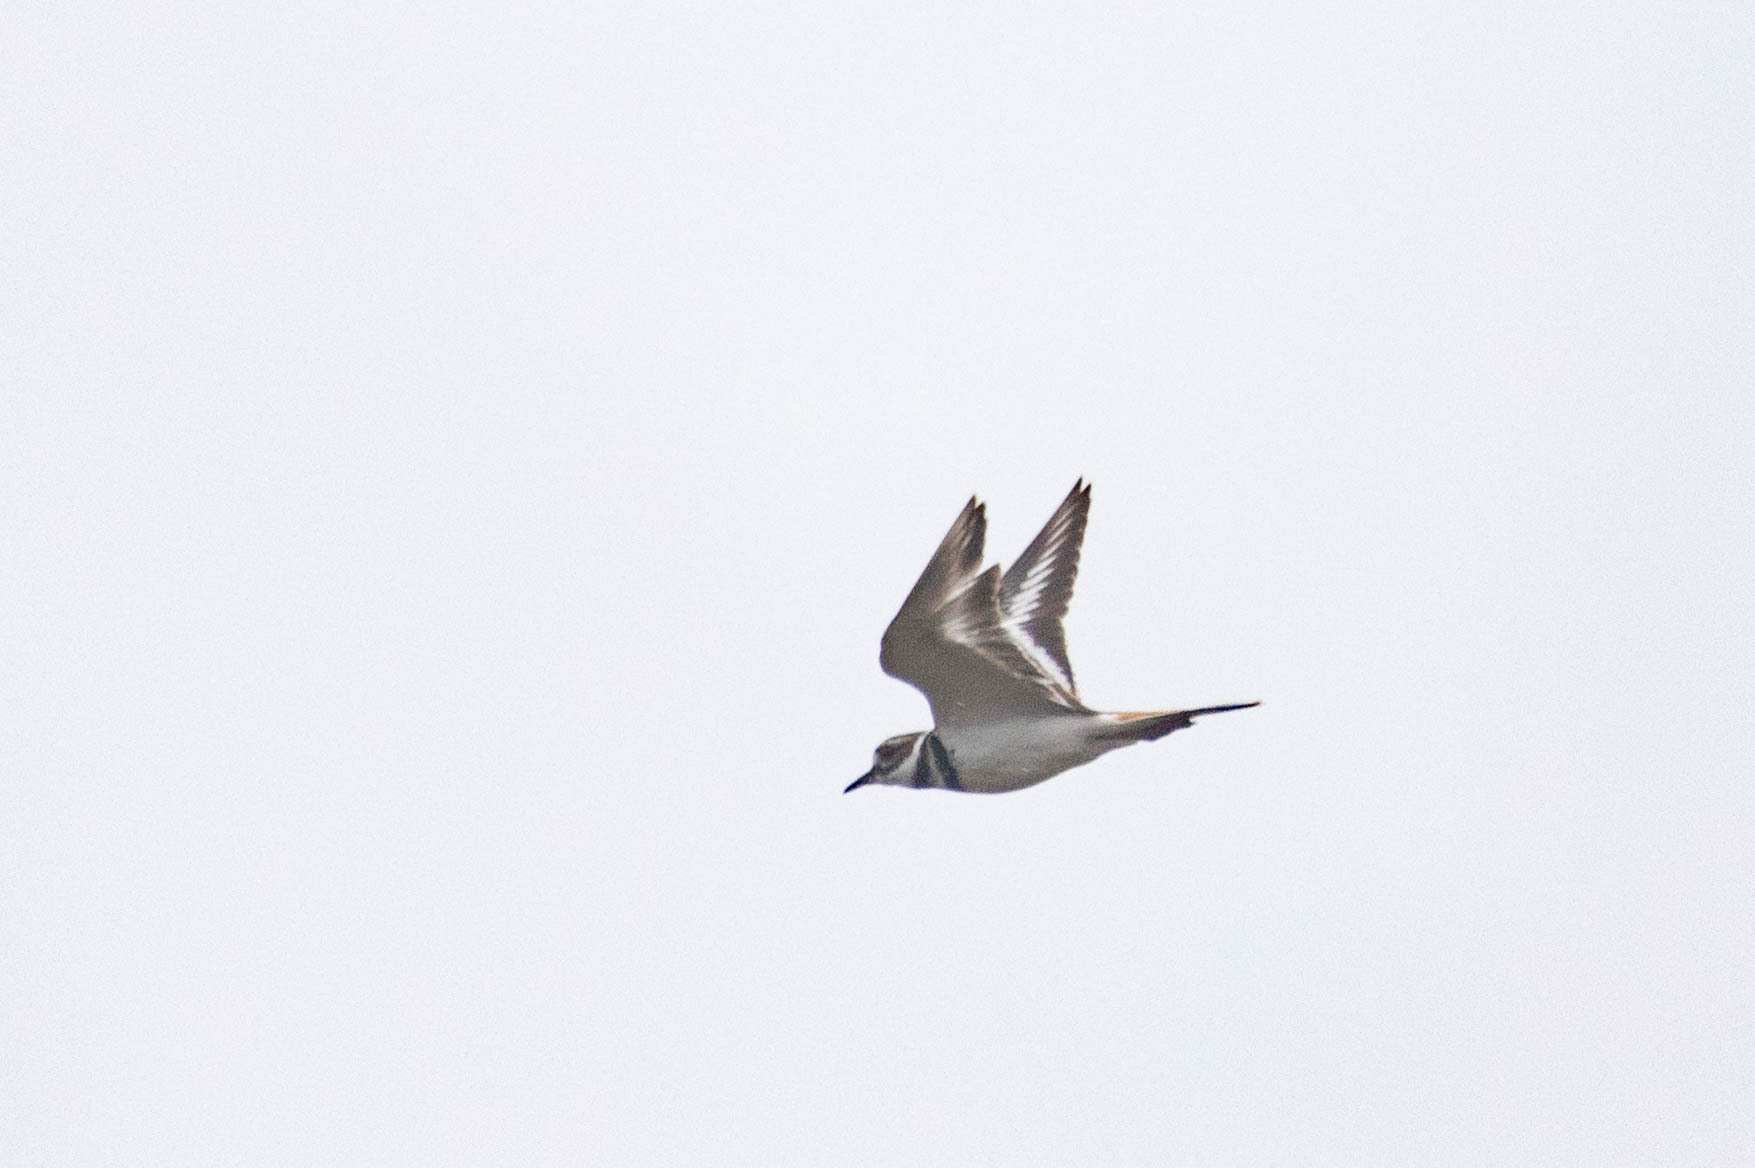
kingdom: Animalia
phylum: Chordata
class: Aves
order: Charadriiformes
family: Charadriidae
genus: Charadrius
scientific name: Charadrius vociferus
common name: Killdeer
